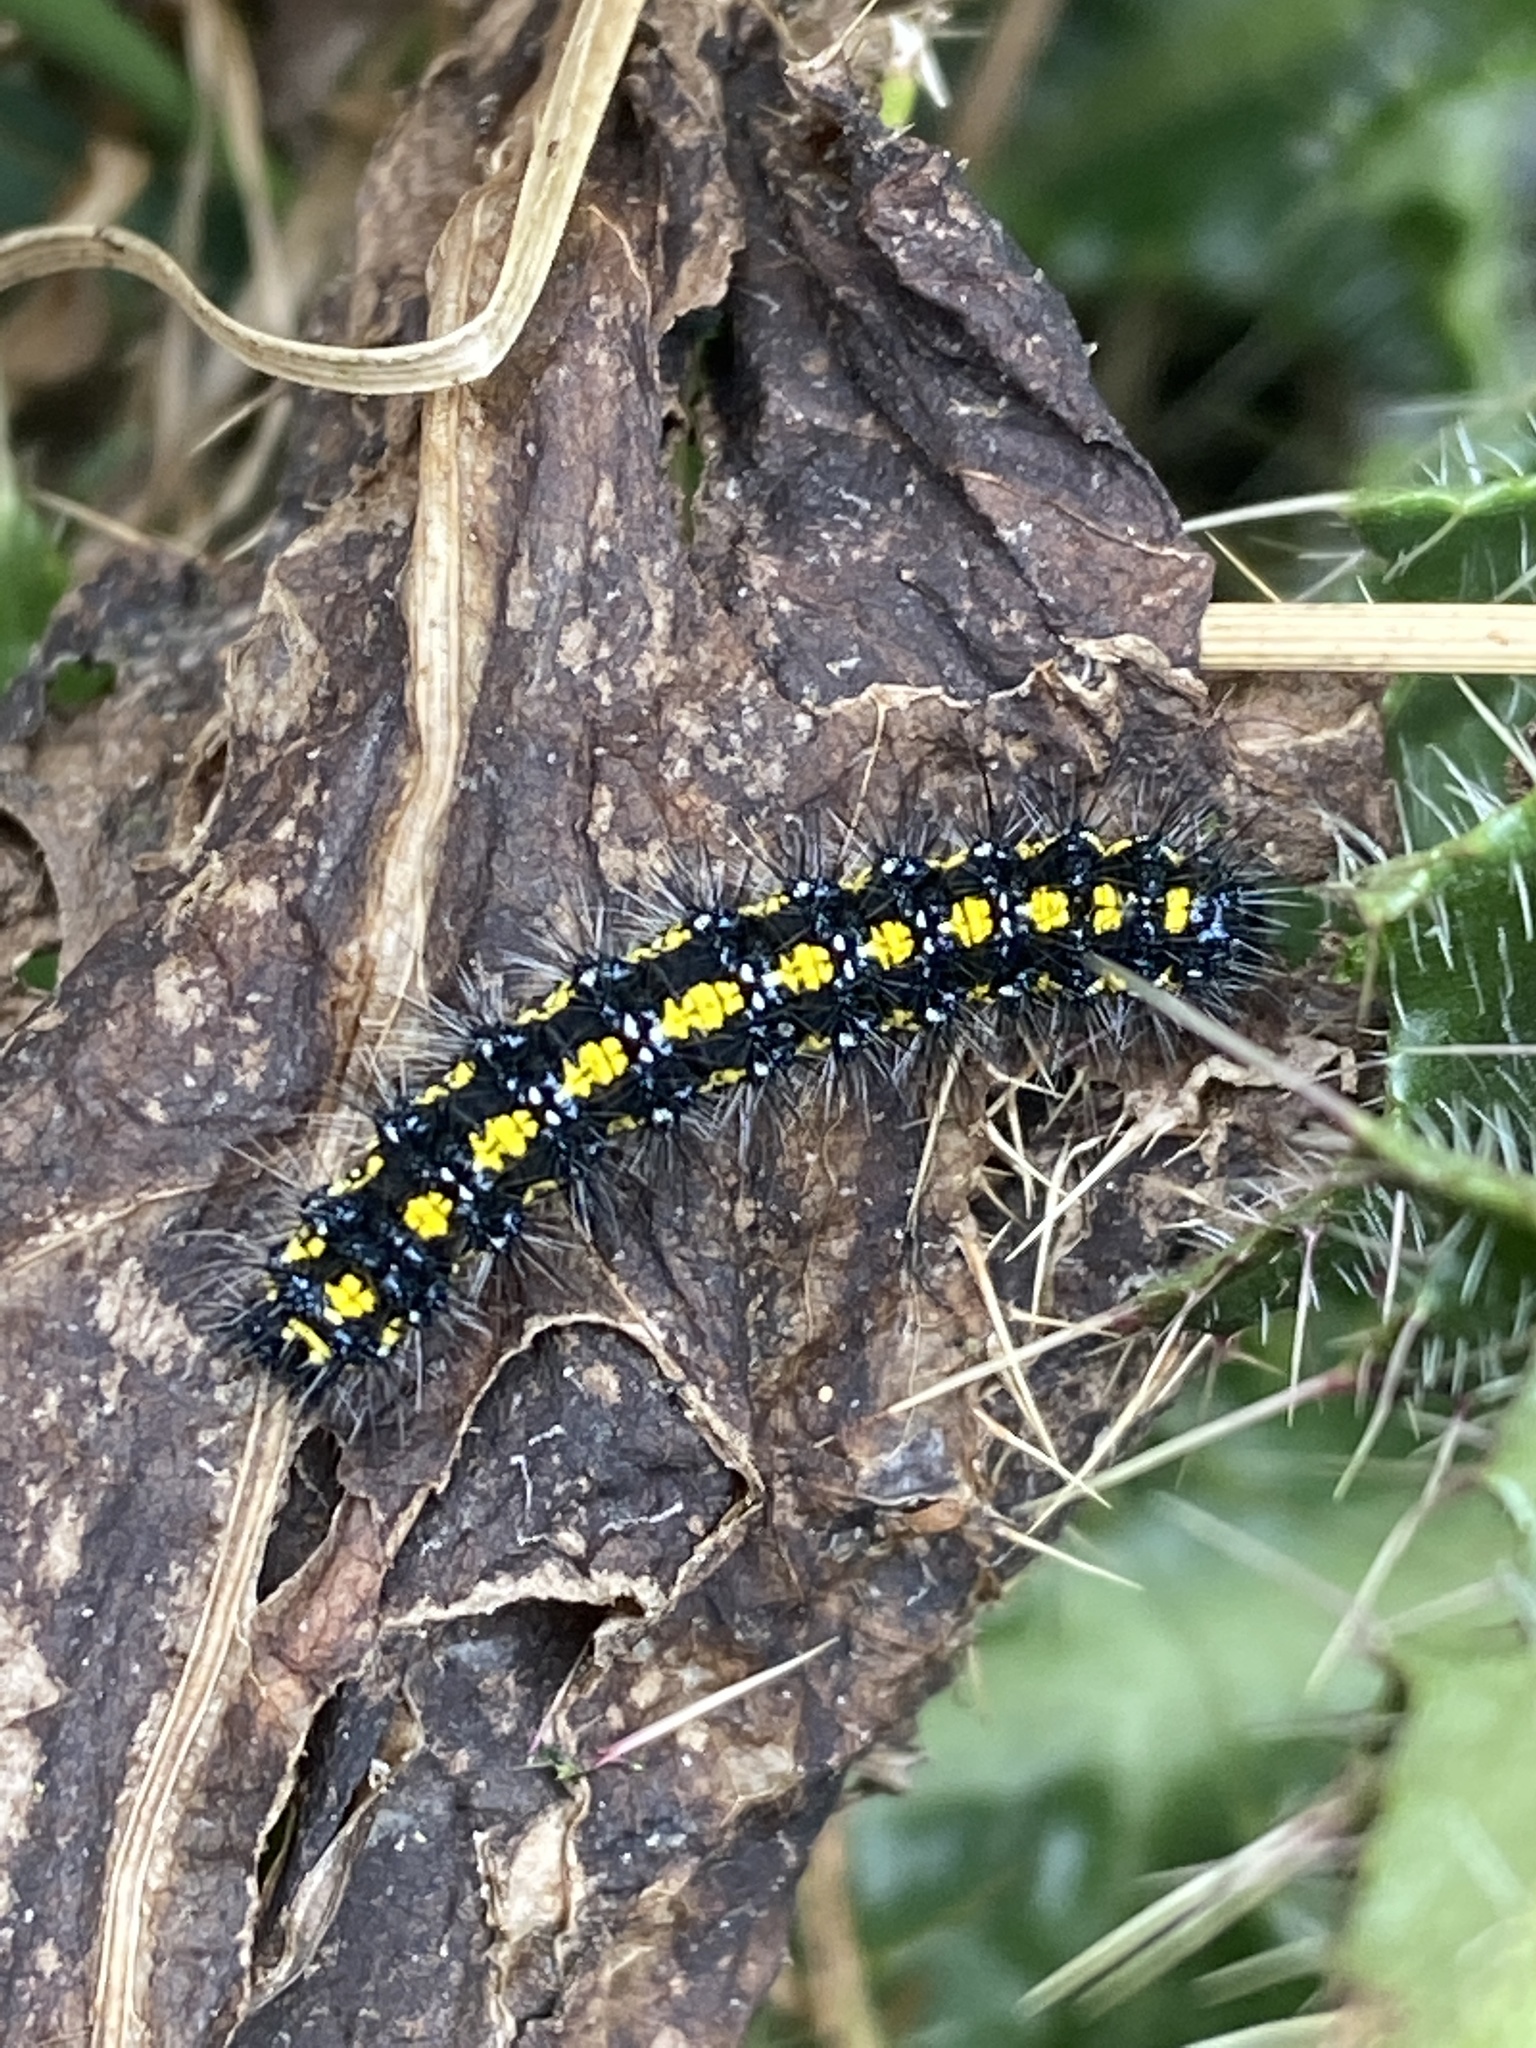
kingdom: Animalia
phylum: Arthropoda
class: Insecta
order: Lepidoptera
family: Erebidae
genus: Callimorpha
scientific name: Callimorpha dominula
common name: Scarlet tiger
